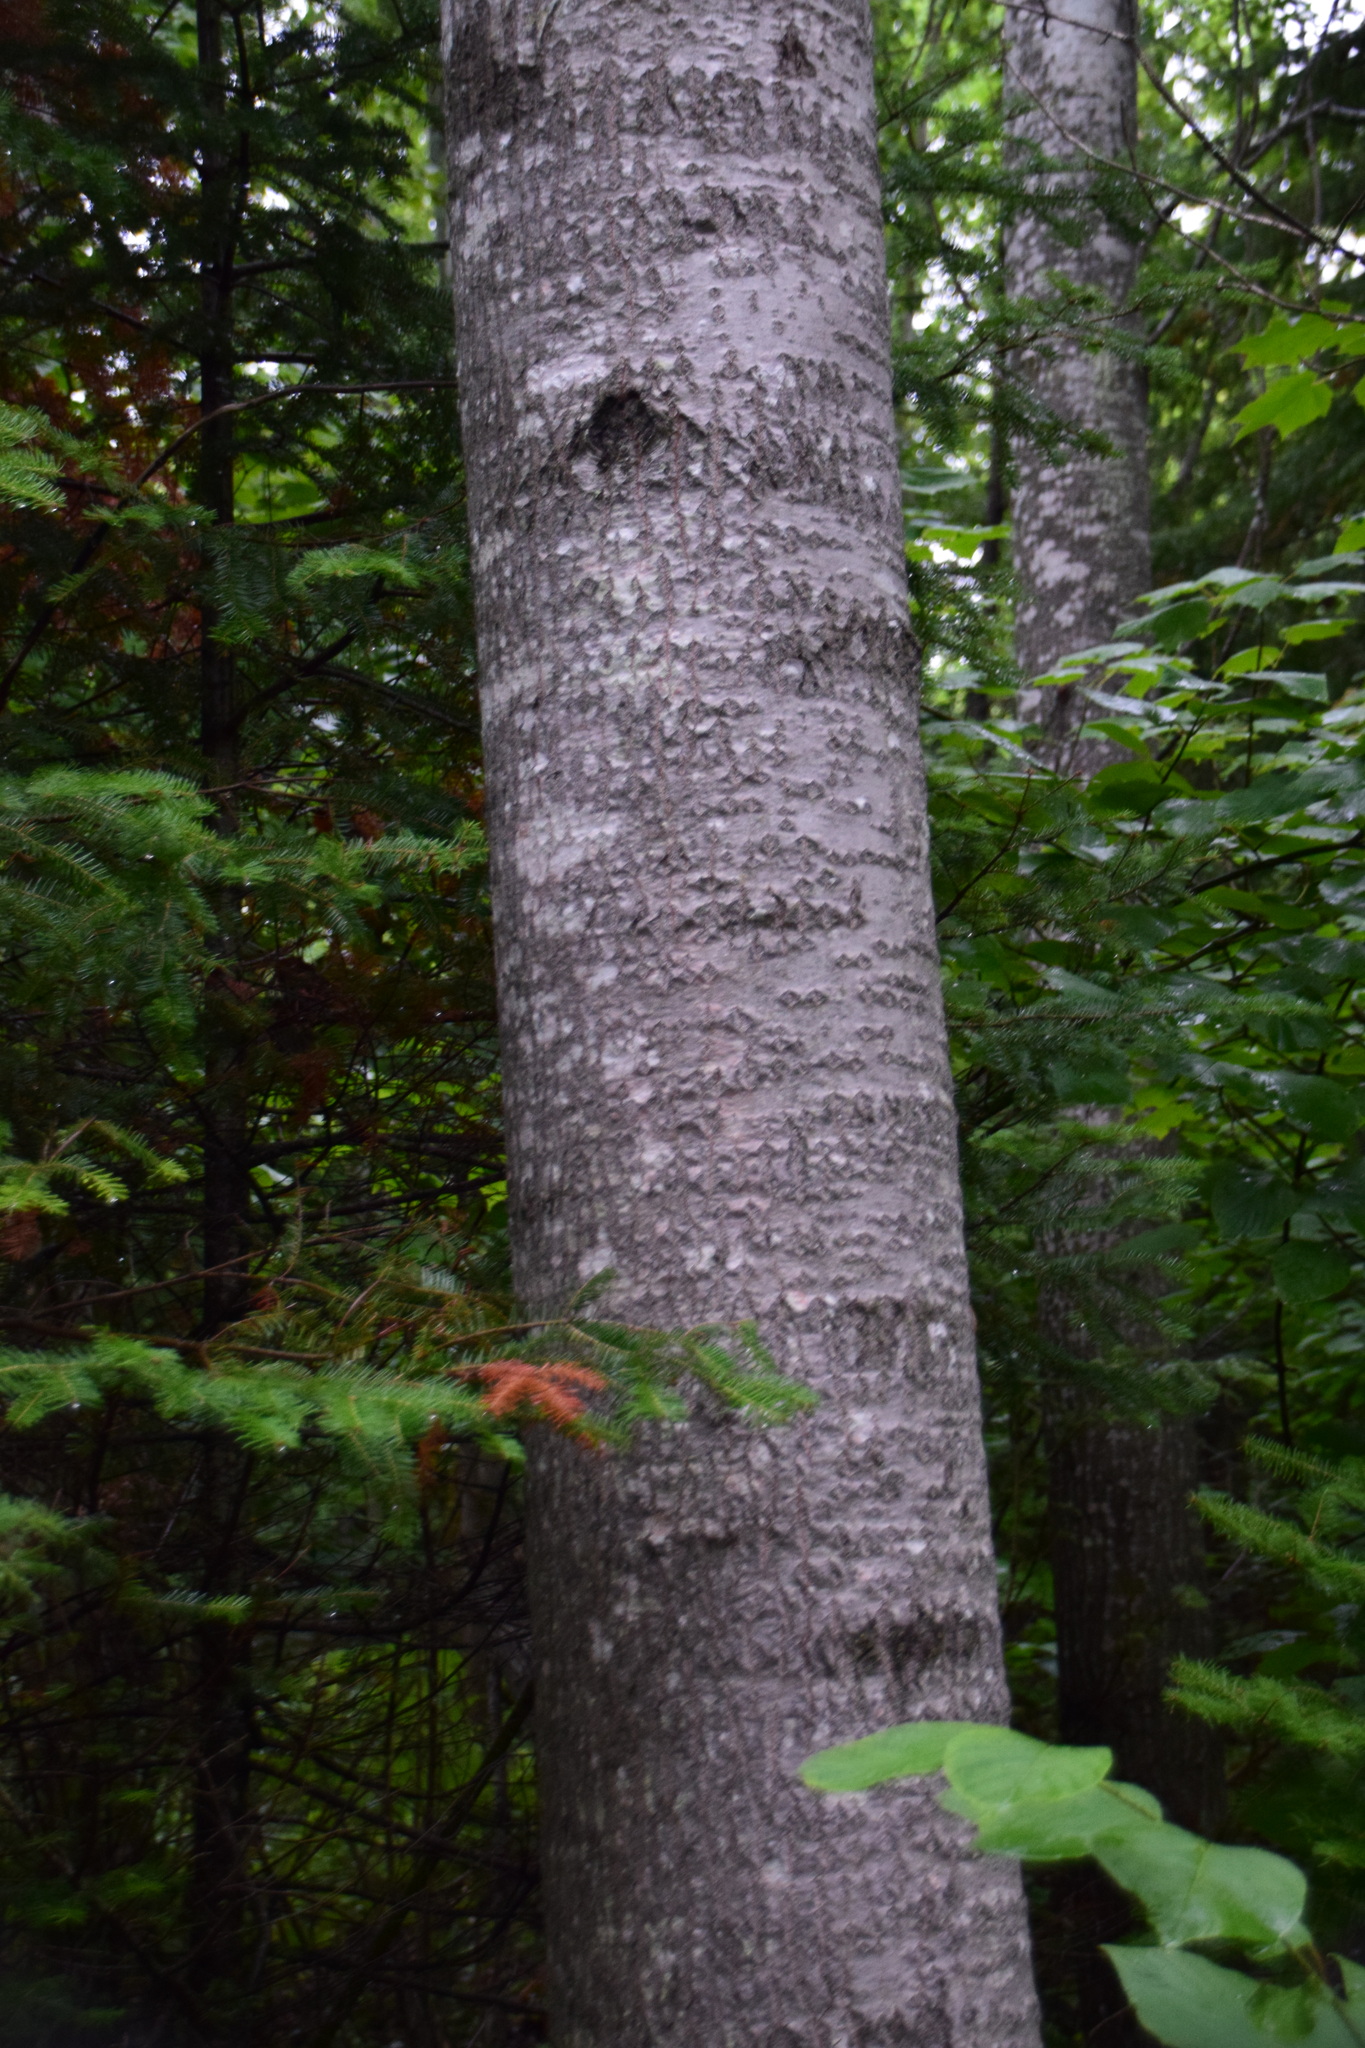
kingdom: Plantae
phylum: Tracheophyta
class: Magnoliopsida
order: Malpighiales
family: Salicaceae
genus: Populus
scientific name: Populus grandidentata
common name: Bigtooth aspen
